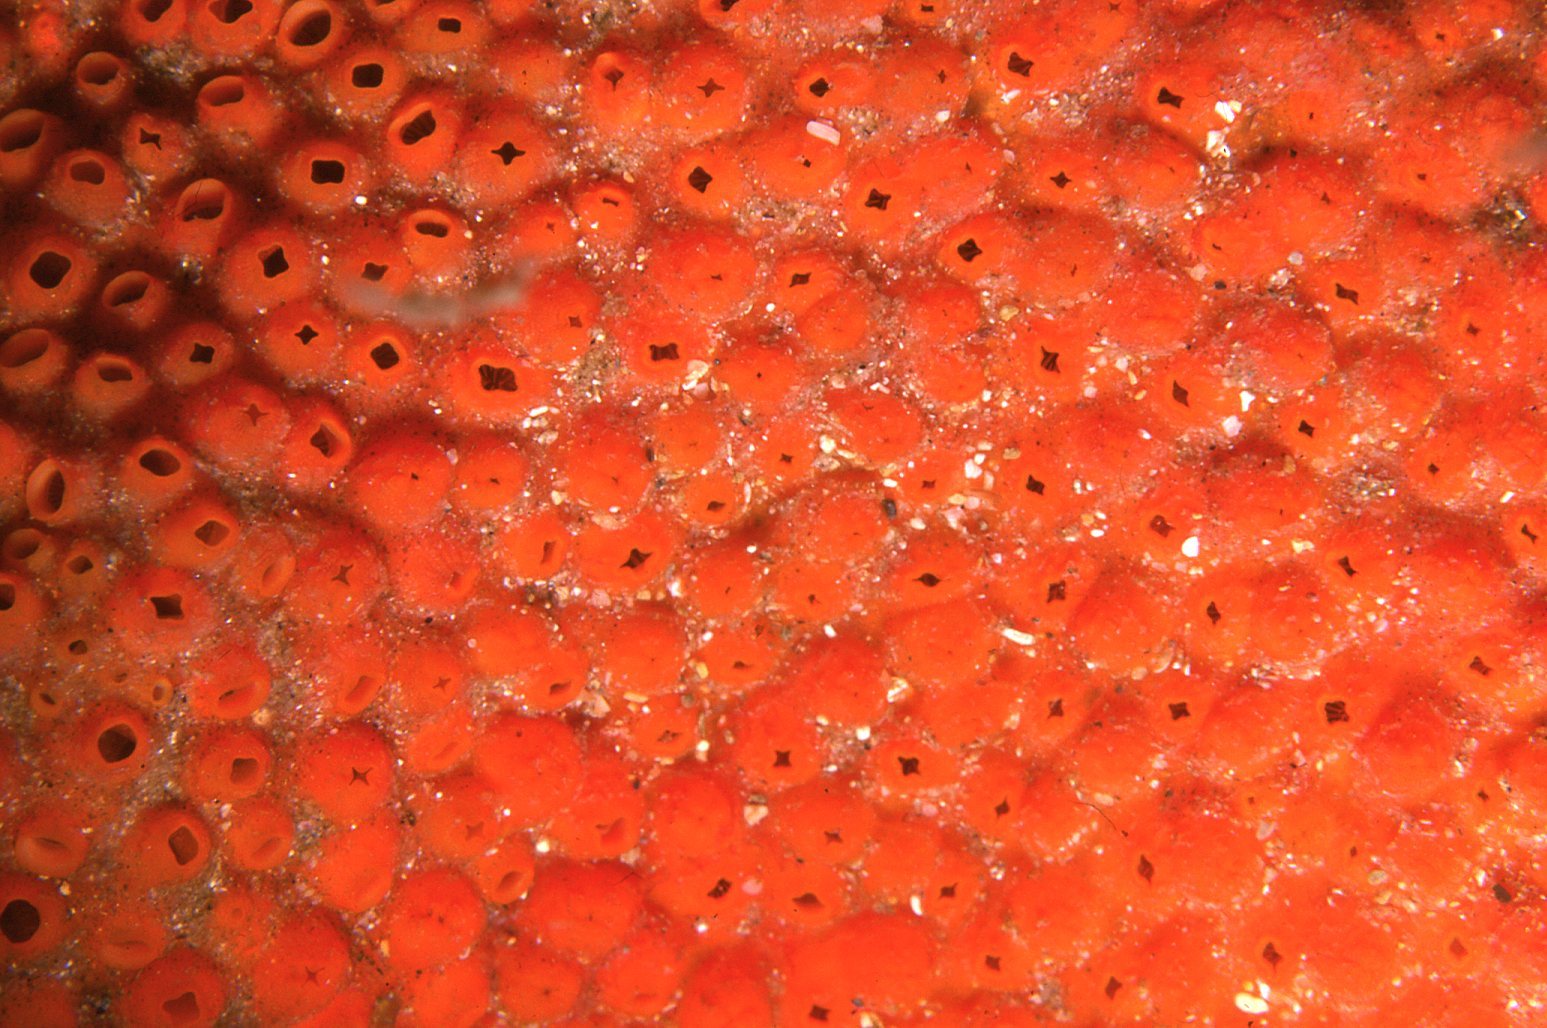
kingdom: Animalia
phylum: Chordata
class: Ascidiacea
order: Stolidobranchia
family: Styelidae
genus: Polyandrocarpa
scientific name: Polyandrocarpa lapidosa
